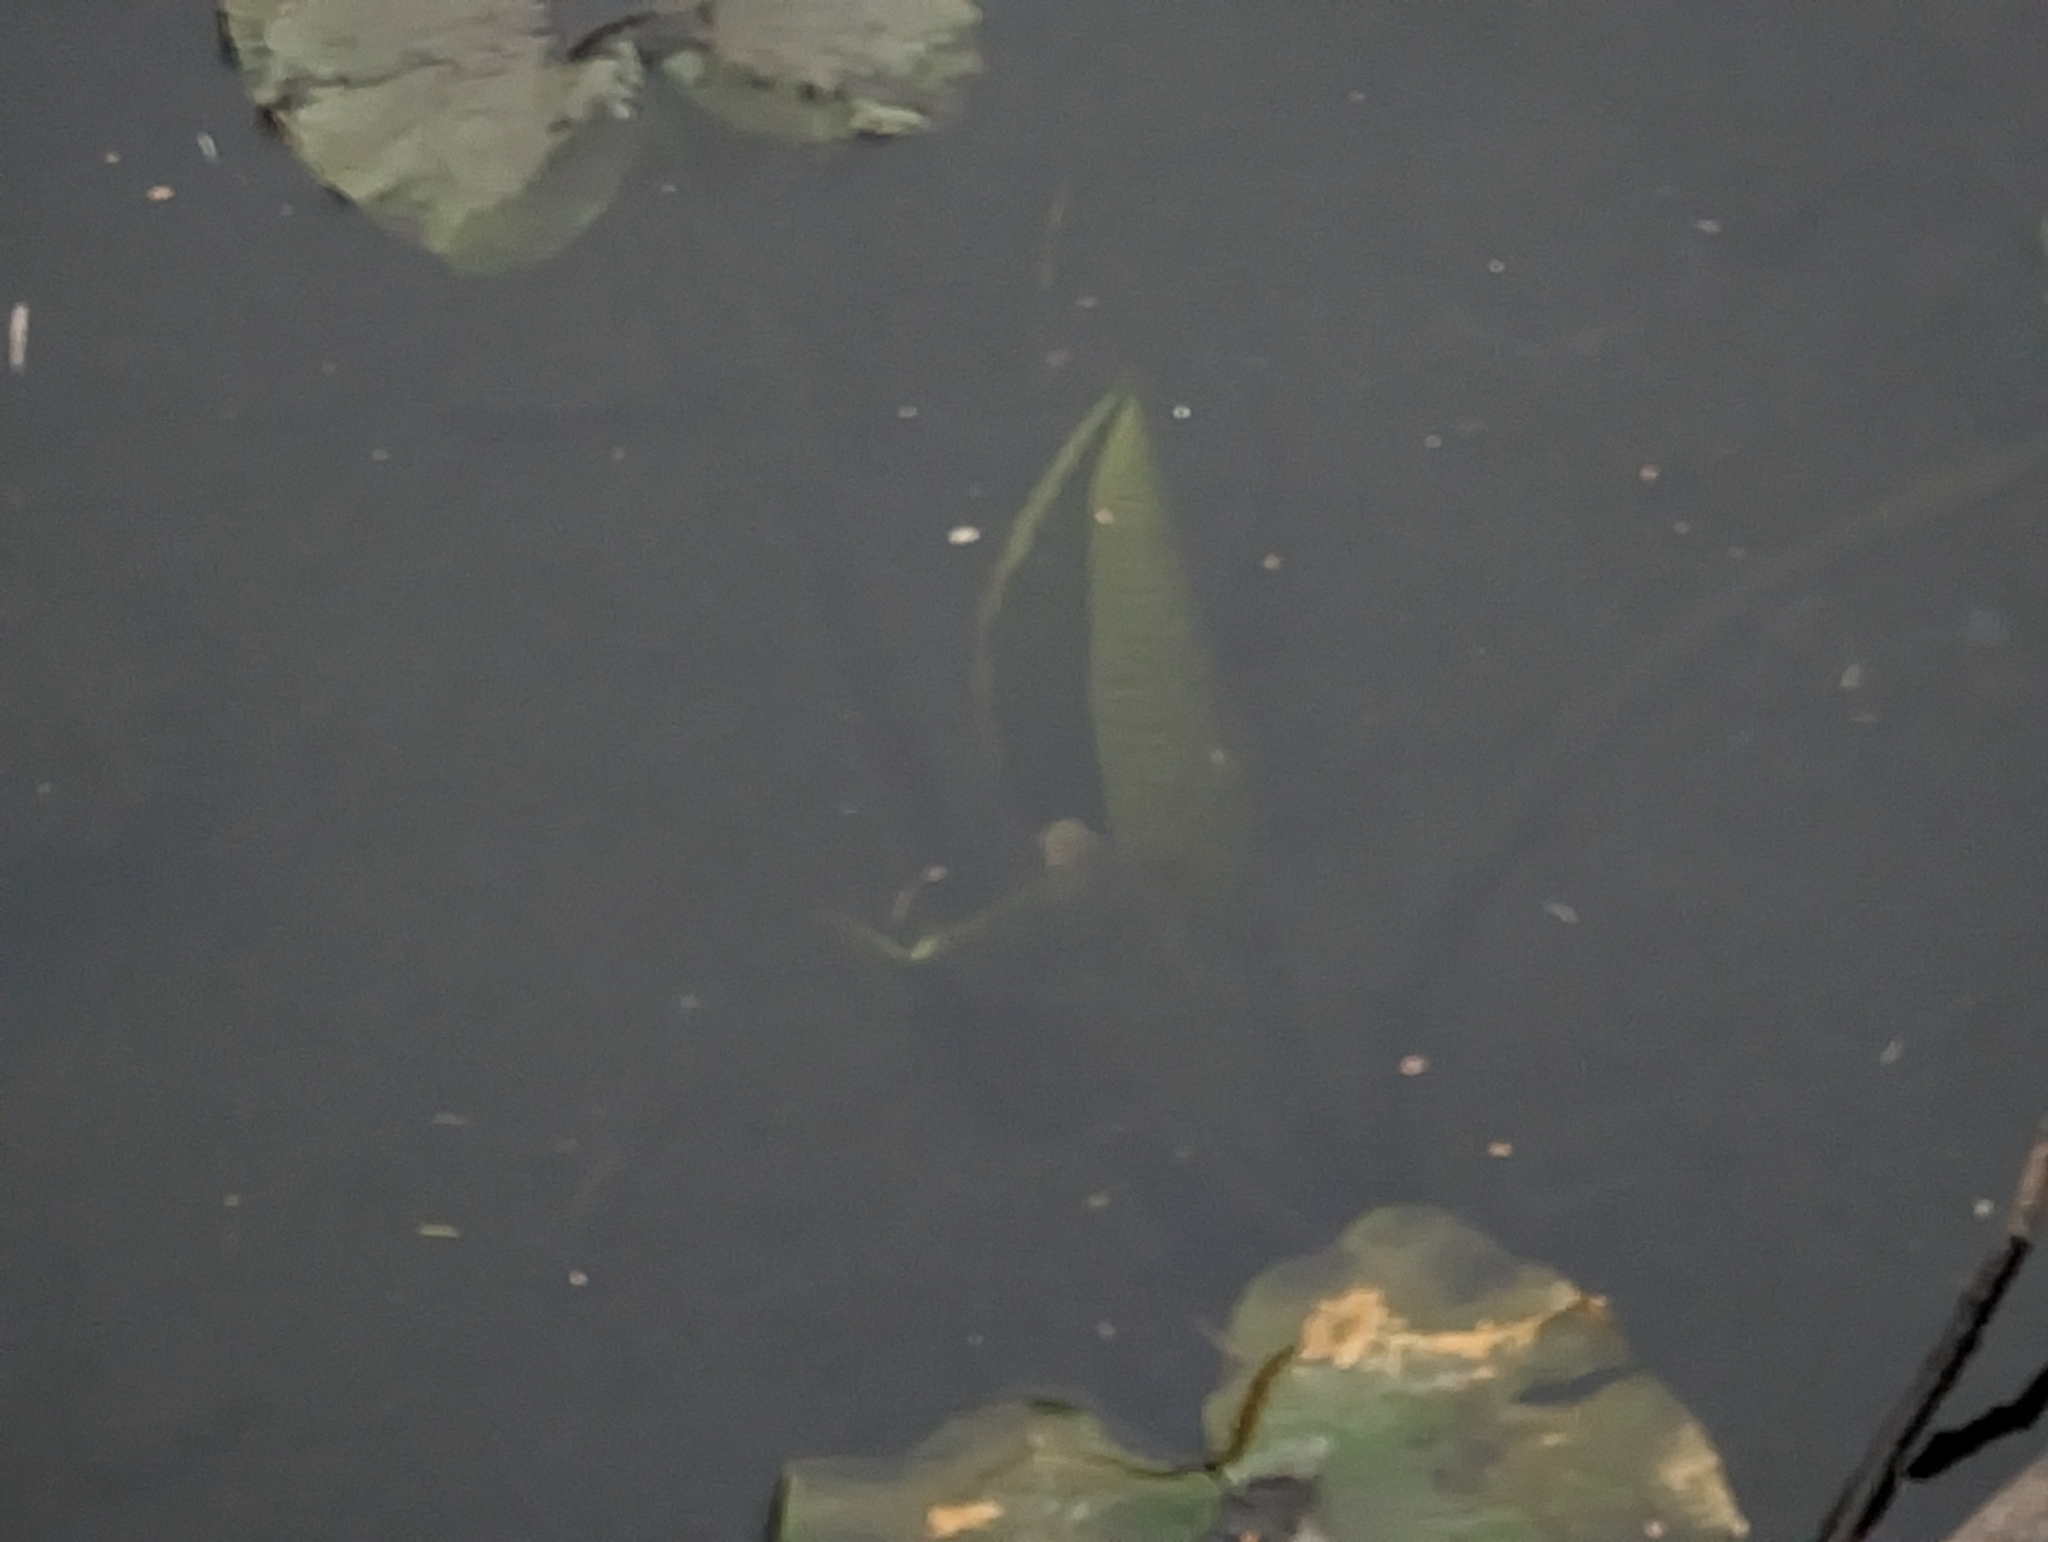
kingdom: Plantae
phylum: Tracheophyta
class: Magnoliopsida
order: Nymphaeales
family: Nymphaeaceae
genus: Nuphar
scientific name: Nuphar polysepala
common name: Rocky mountain cow-lily
